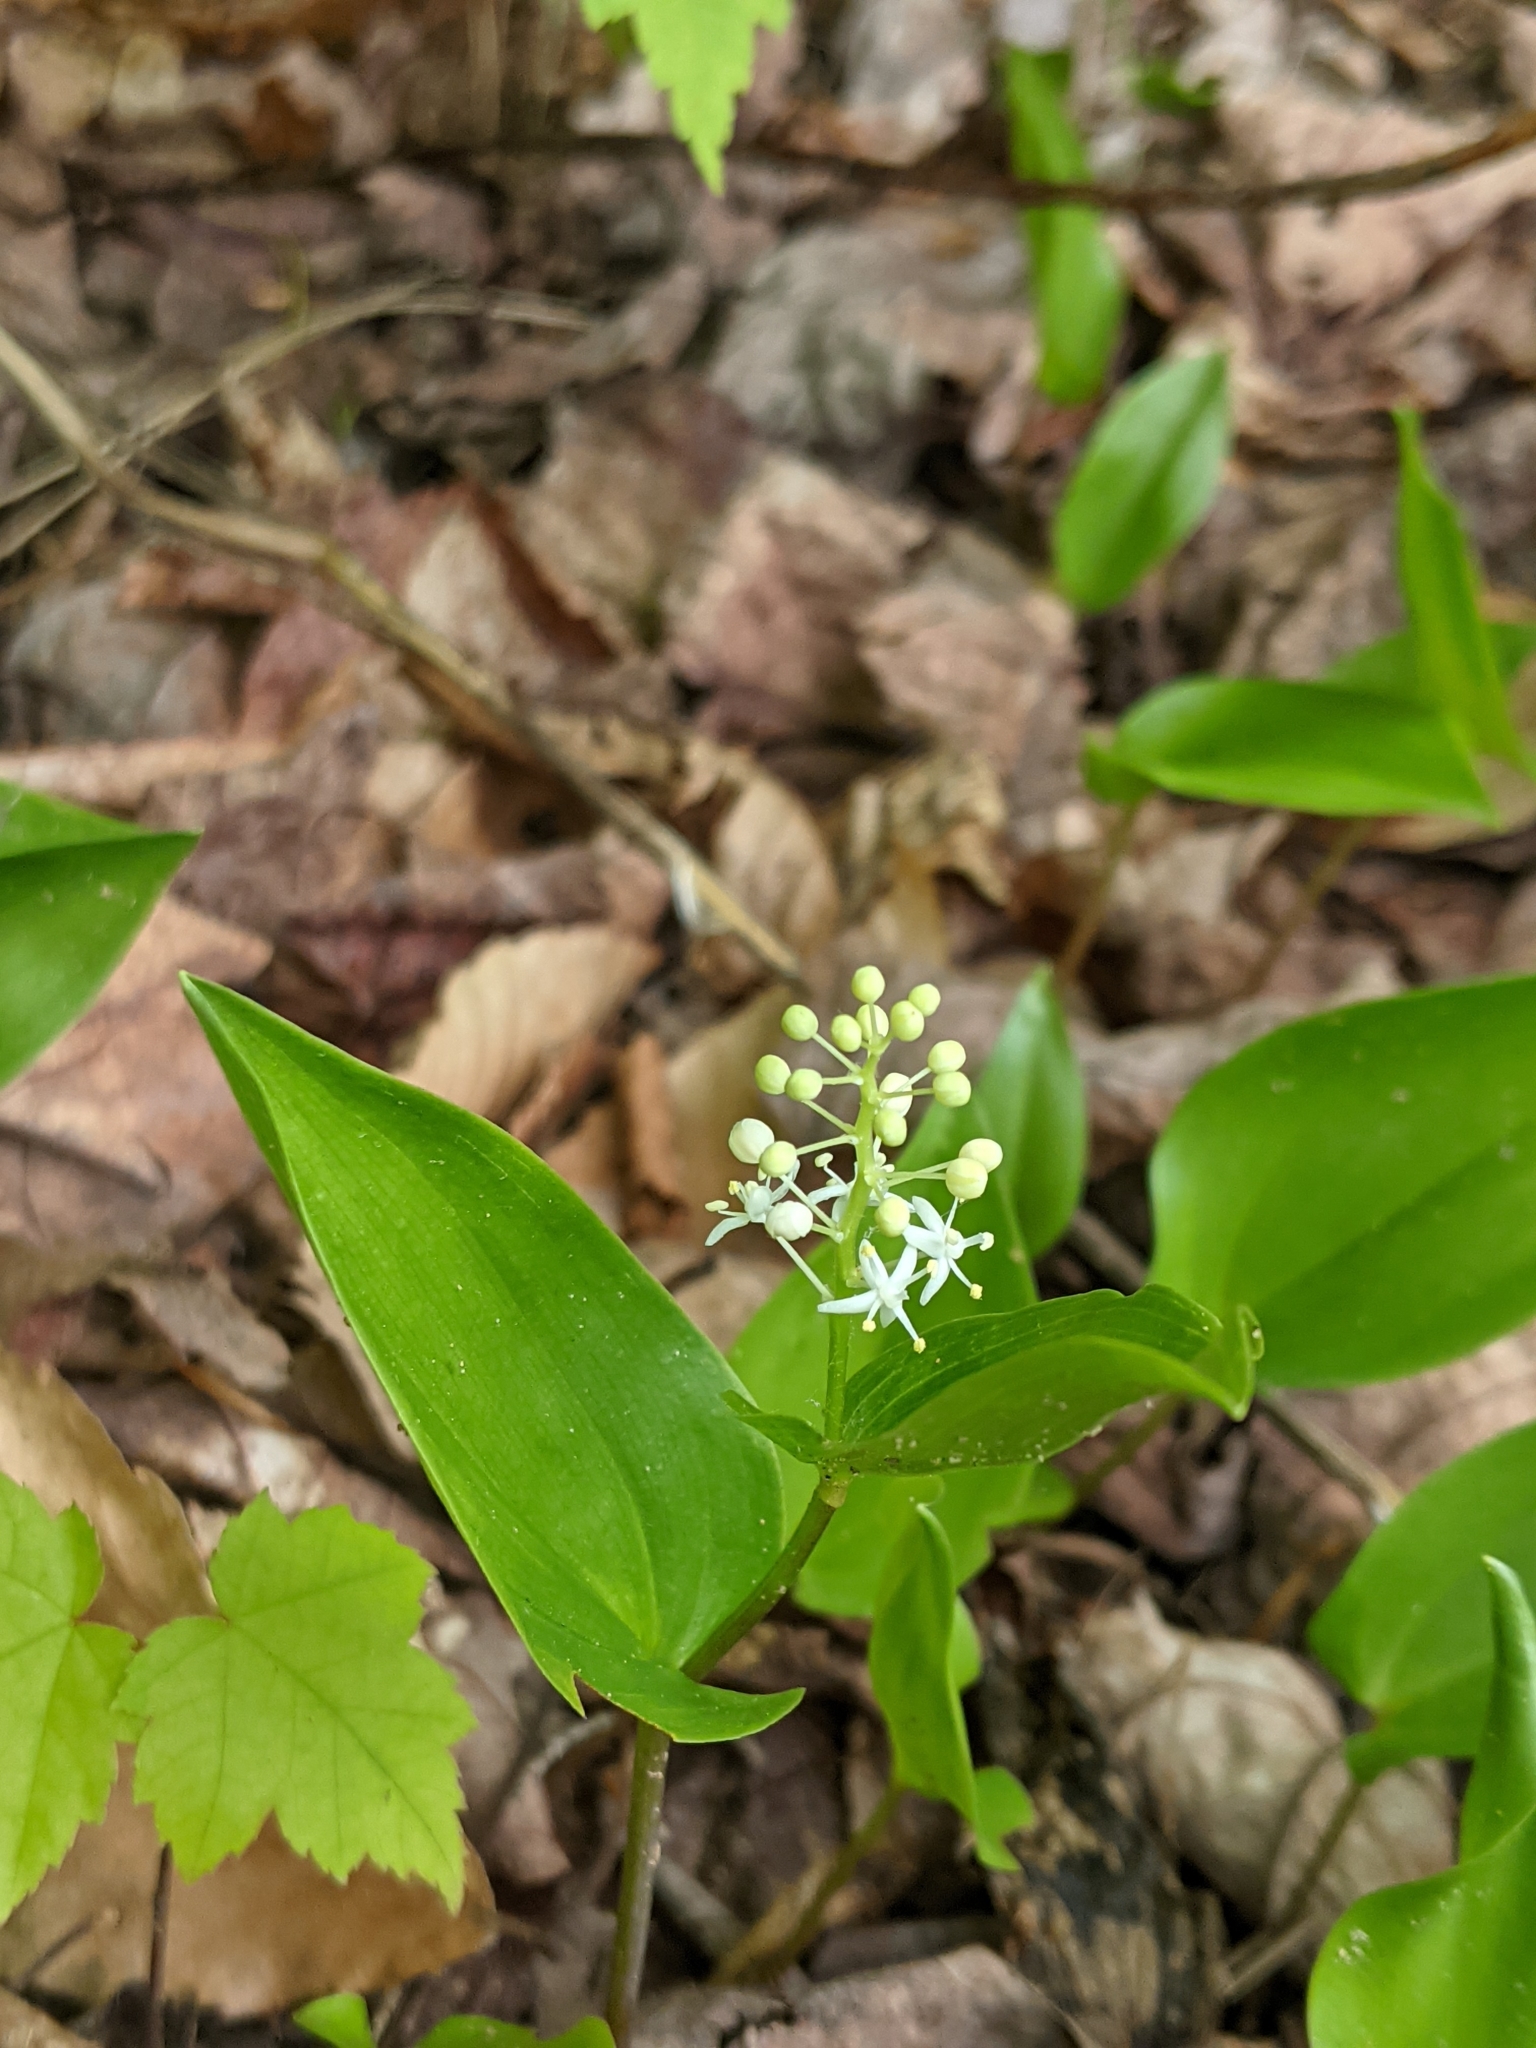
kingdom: Plantae
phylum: Tracheophyta
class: Liliopsida
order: Asparagales
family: Asparagaceae
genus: Maianthemum
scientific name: Maianthemum canadense
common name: False lily-of-the-valley
